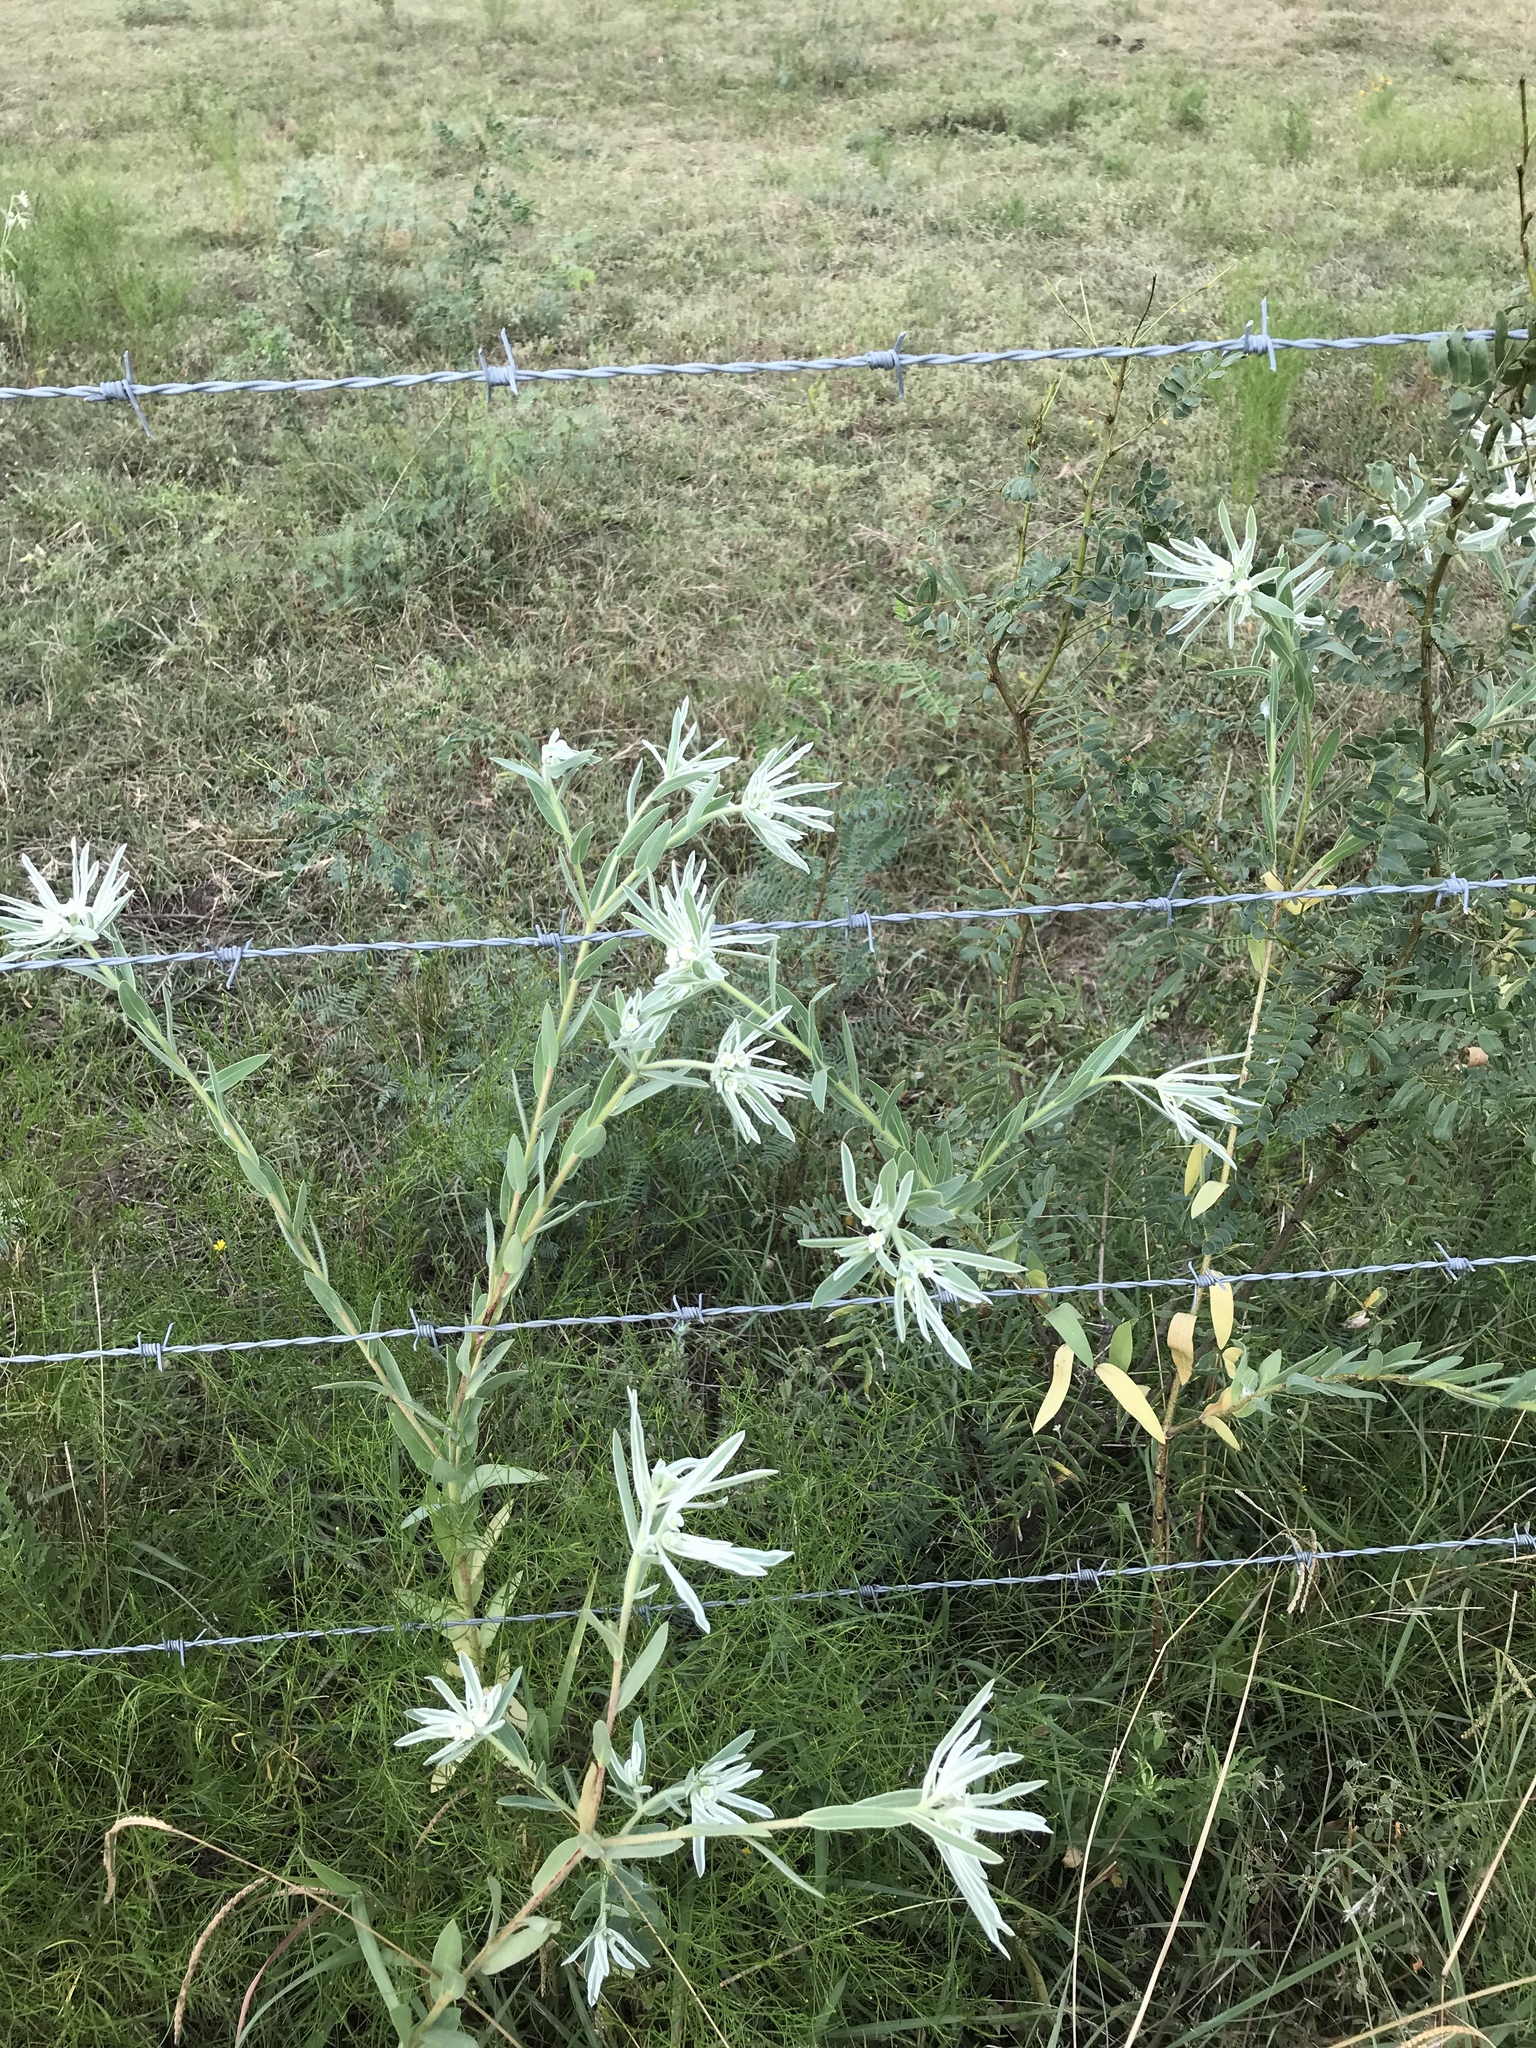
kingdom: Plantae
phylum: Tracheophyta
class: Magnoliopsida
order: Malpighiales
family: Euphorbiaceae
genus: Euphorbia
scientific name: Euphorbia bicolor
